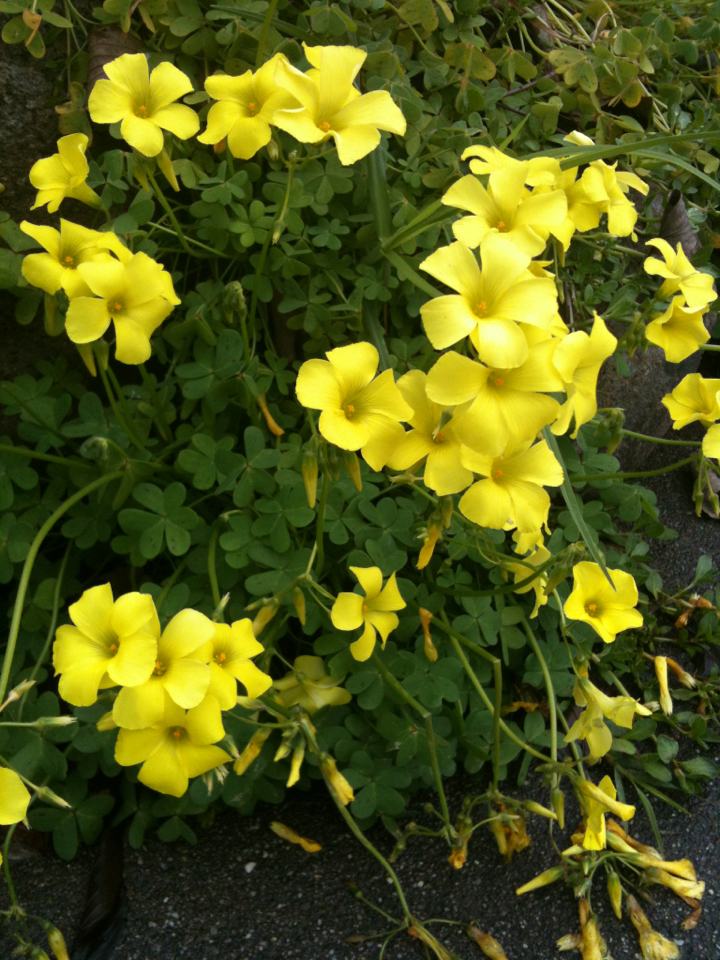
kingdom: Plantae
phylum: Tracheophyta
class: Magnoliopsida
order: Oxalidales
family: Oxalidaceae
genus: Oxalis
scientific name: Oxalis pes-caprae
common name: Bermuda-buttercup
